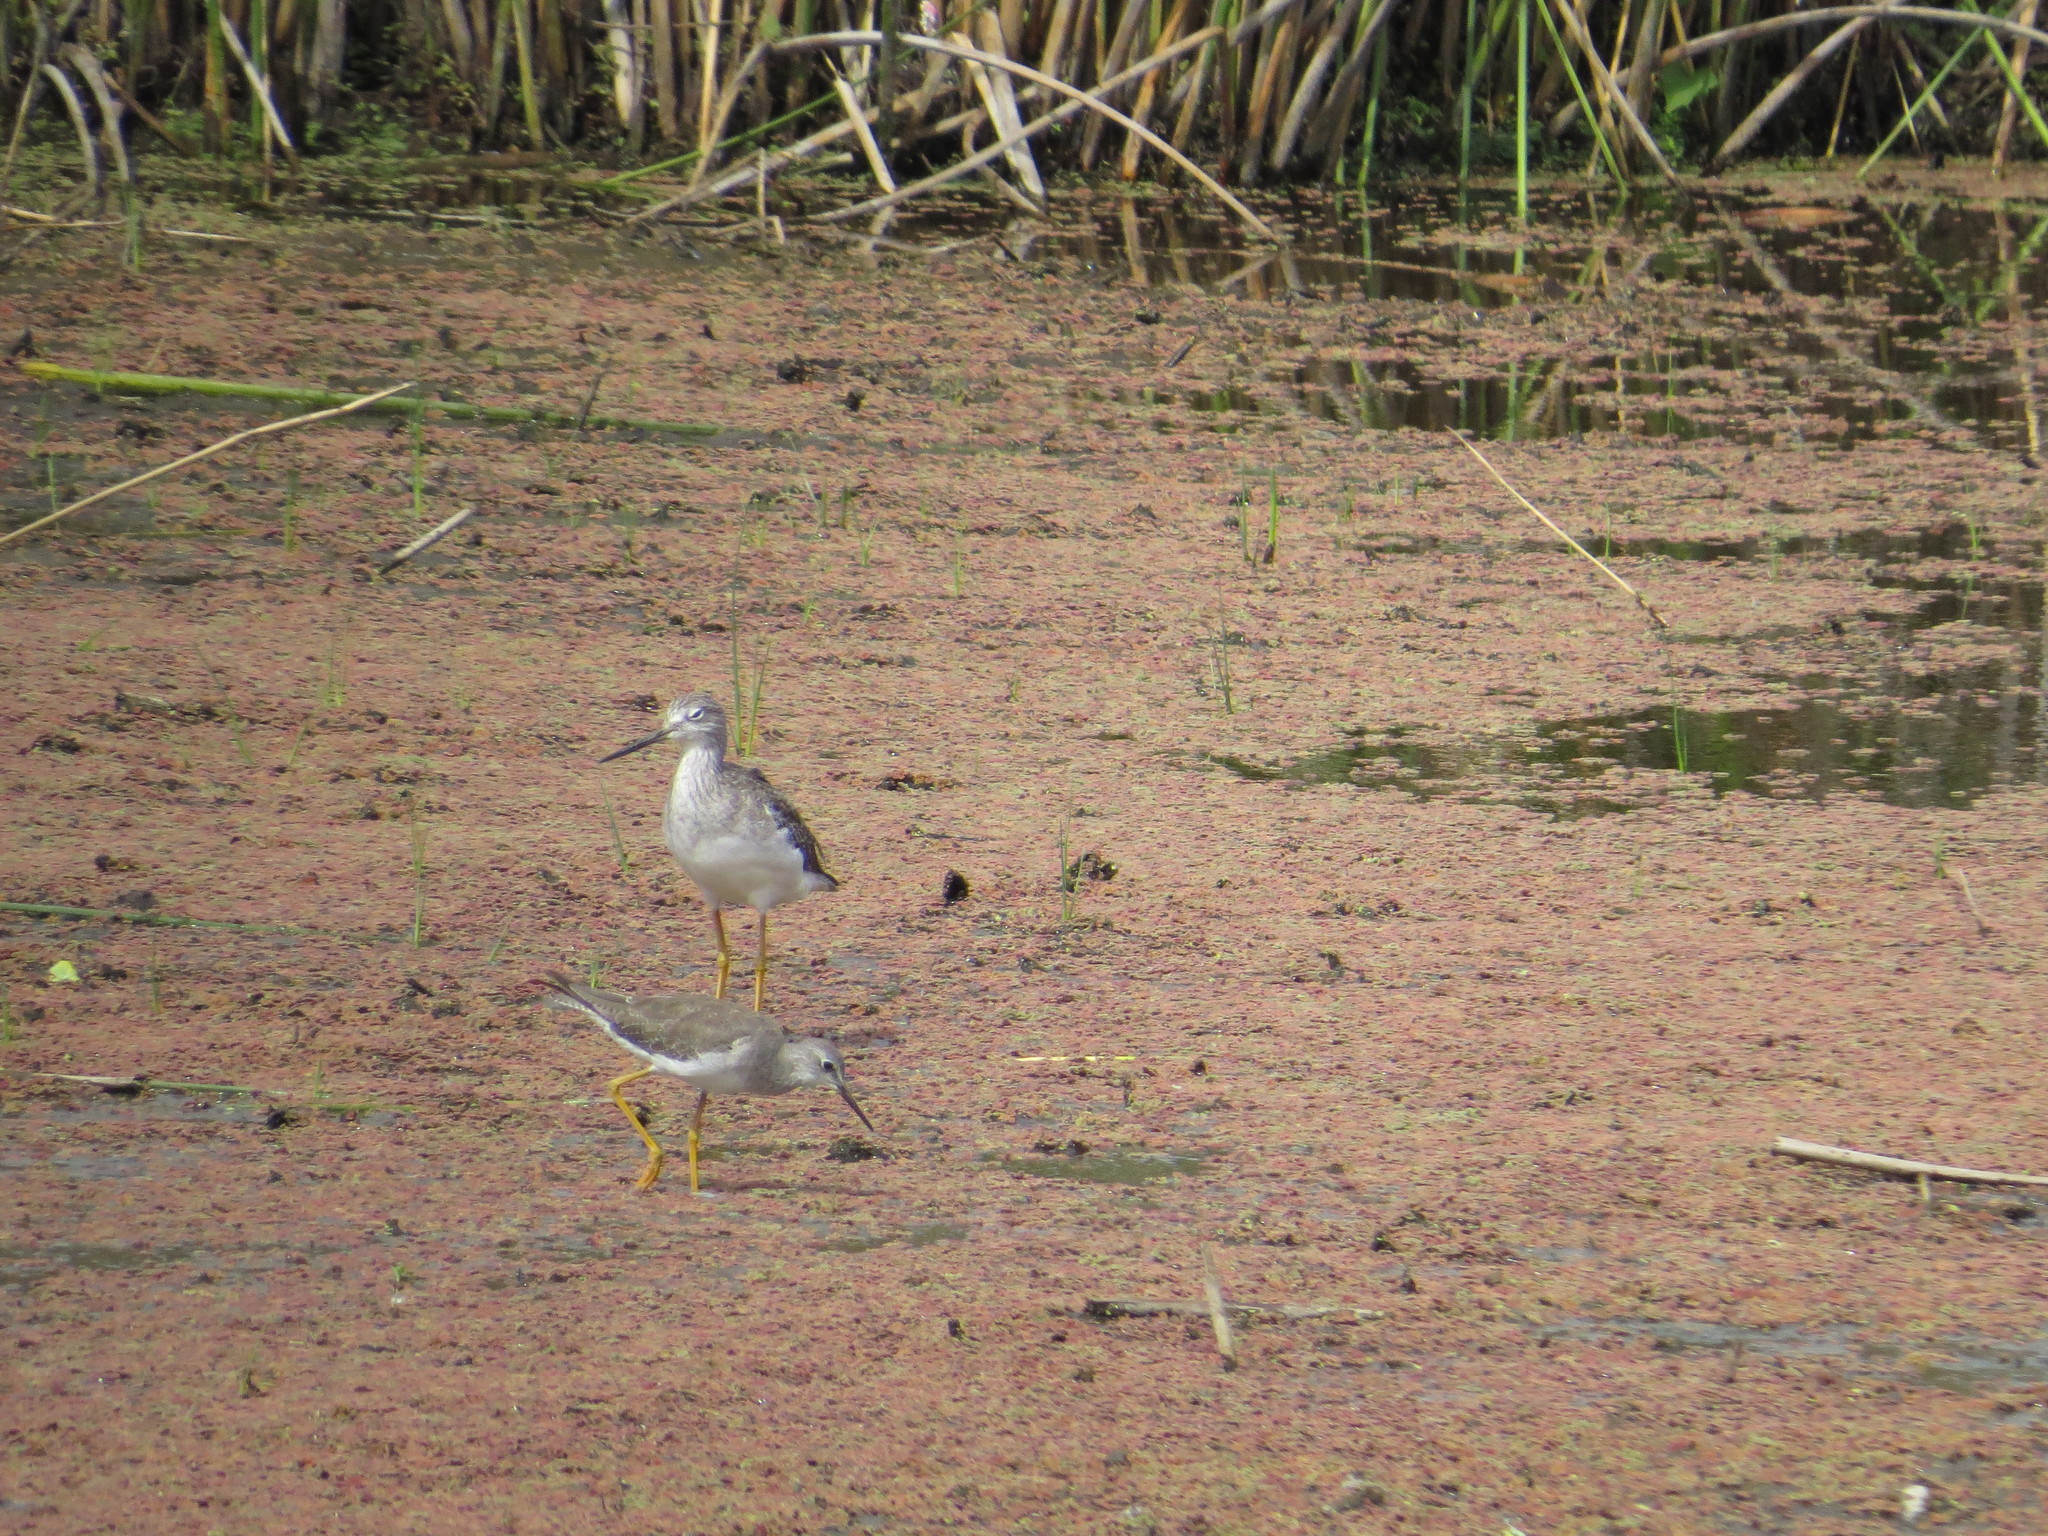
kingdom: Animalia
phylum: Chordata
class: Aves
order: Charadriiformes
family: Scolopacidae
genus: Tringa
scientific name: Tringa melanoleuca
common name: Greater yellowlegs
